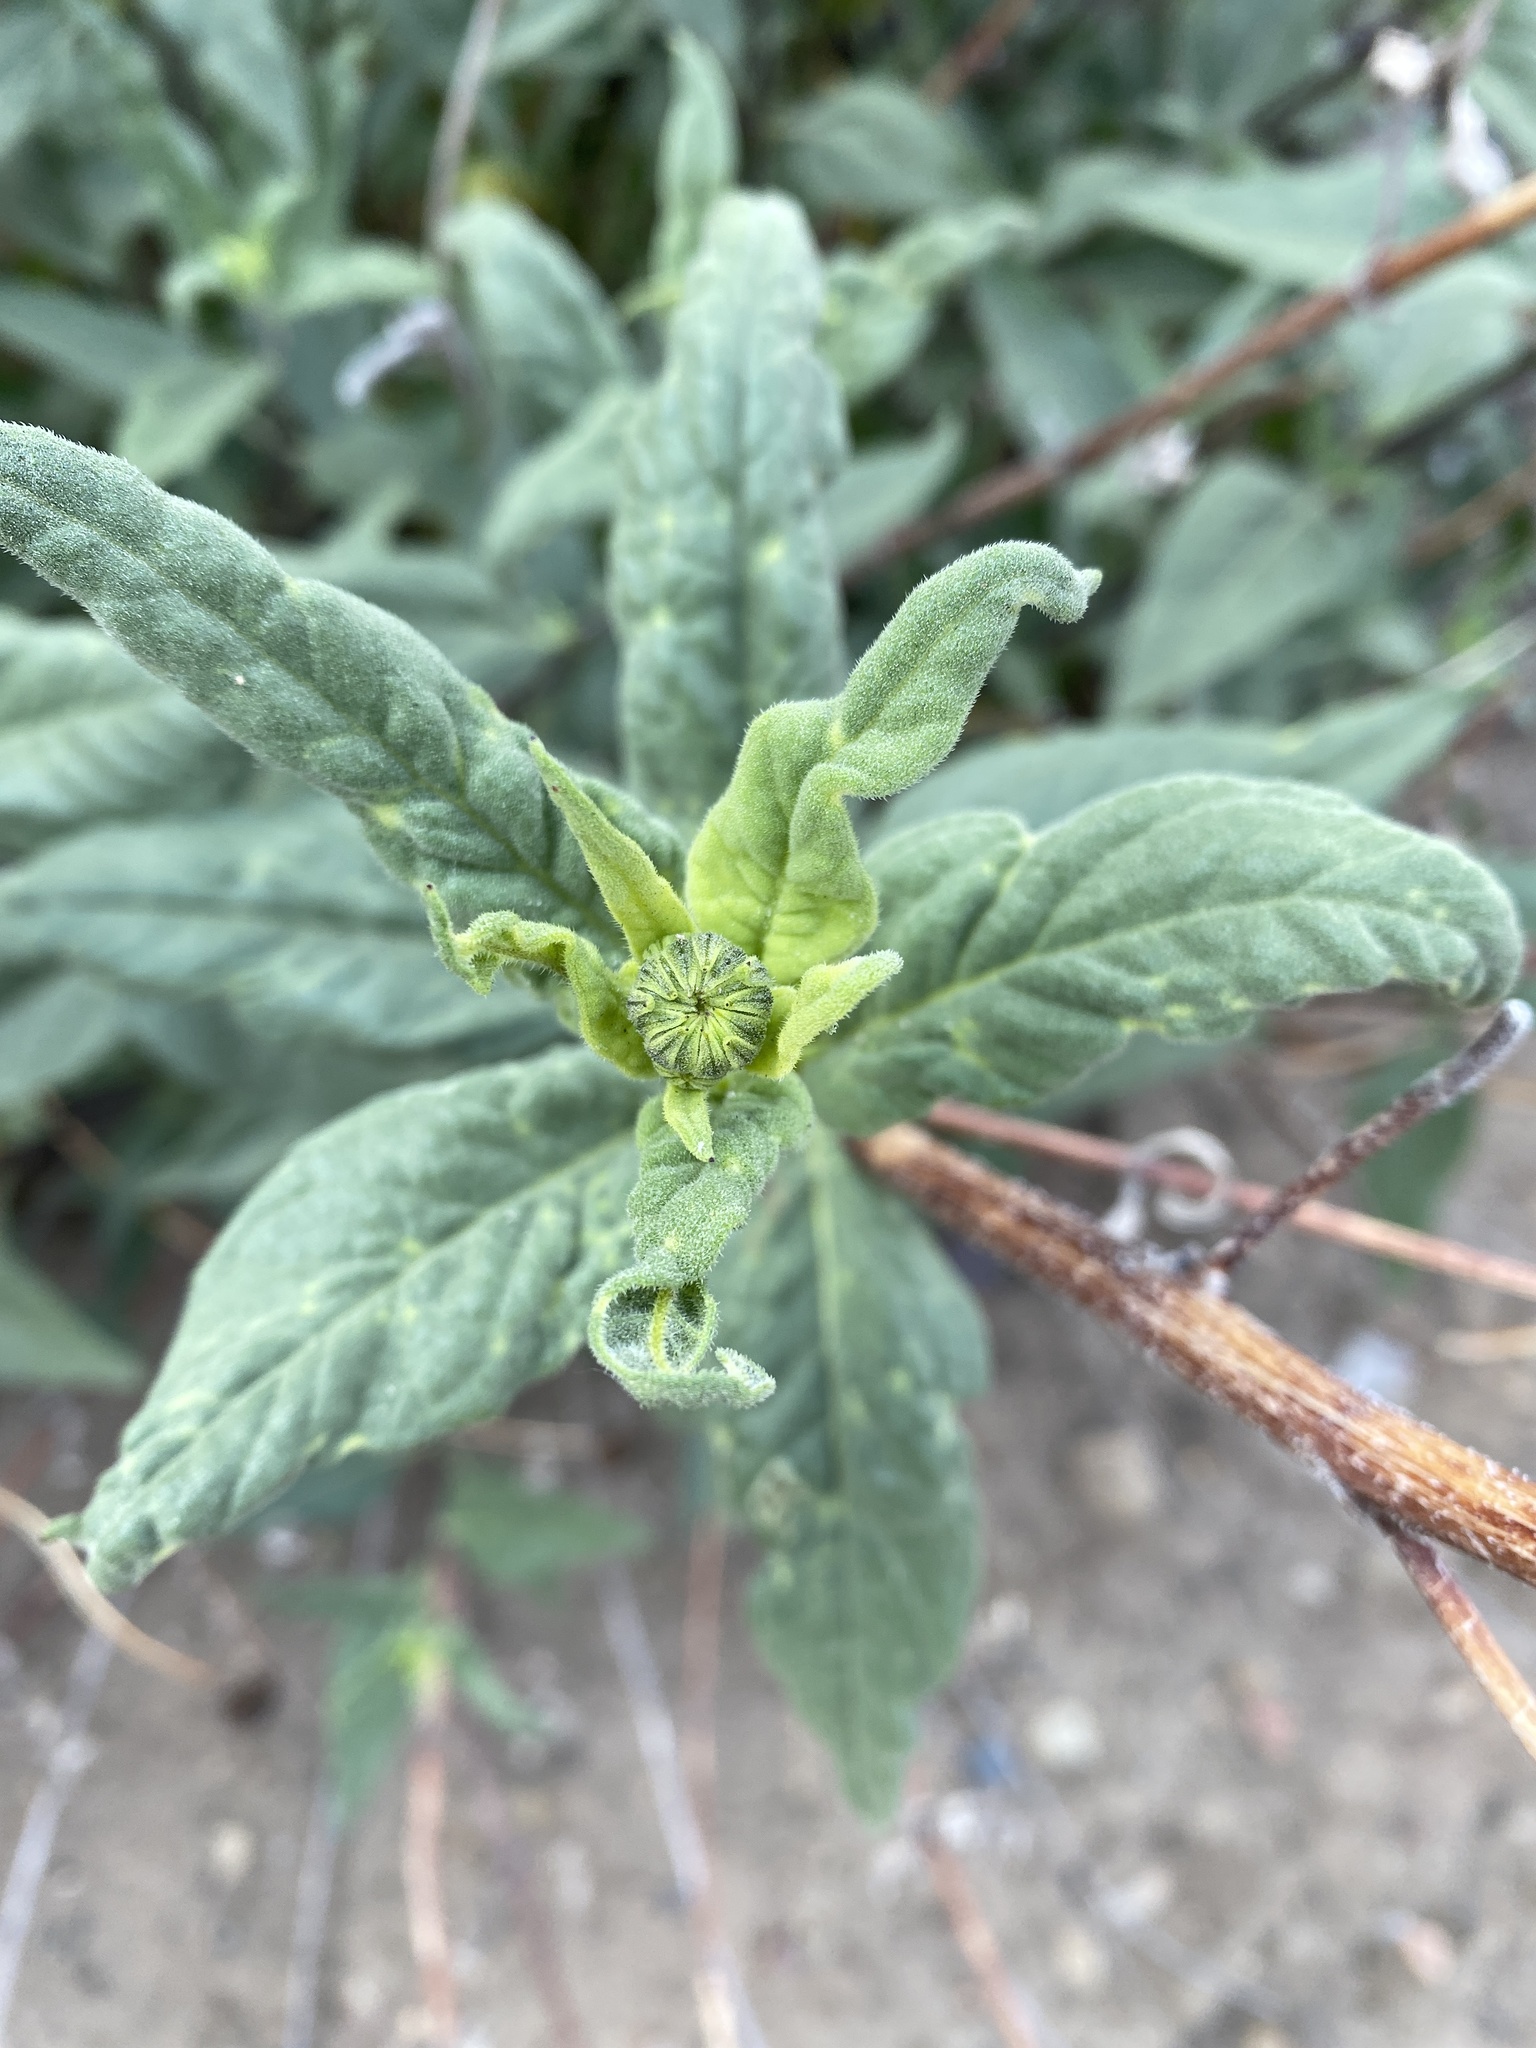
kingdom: Plantae
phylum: Tracheophyta
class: Magnoliopsida
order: Asterales
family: Asteraceae
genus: Helianthus
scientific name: Helianthus gracilentus
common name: Slender sunflower
